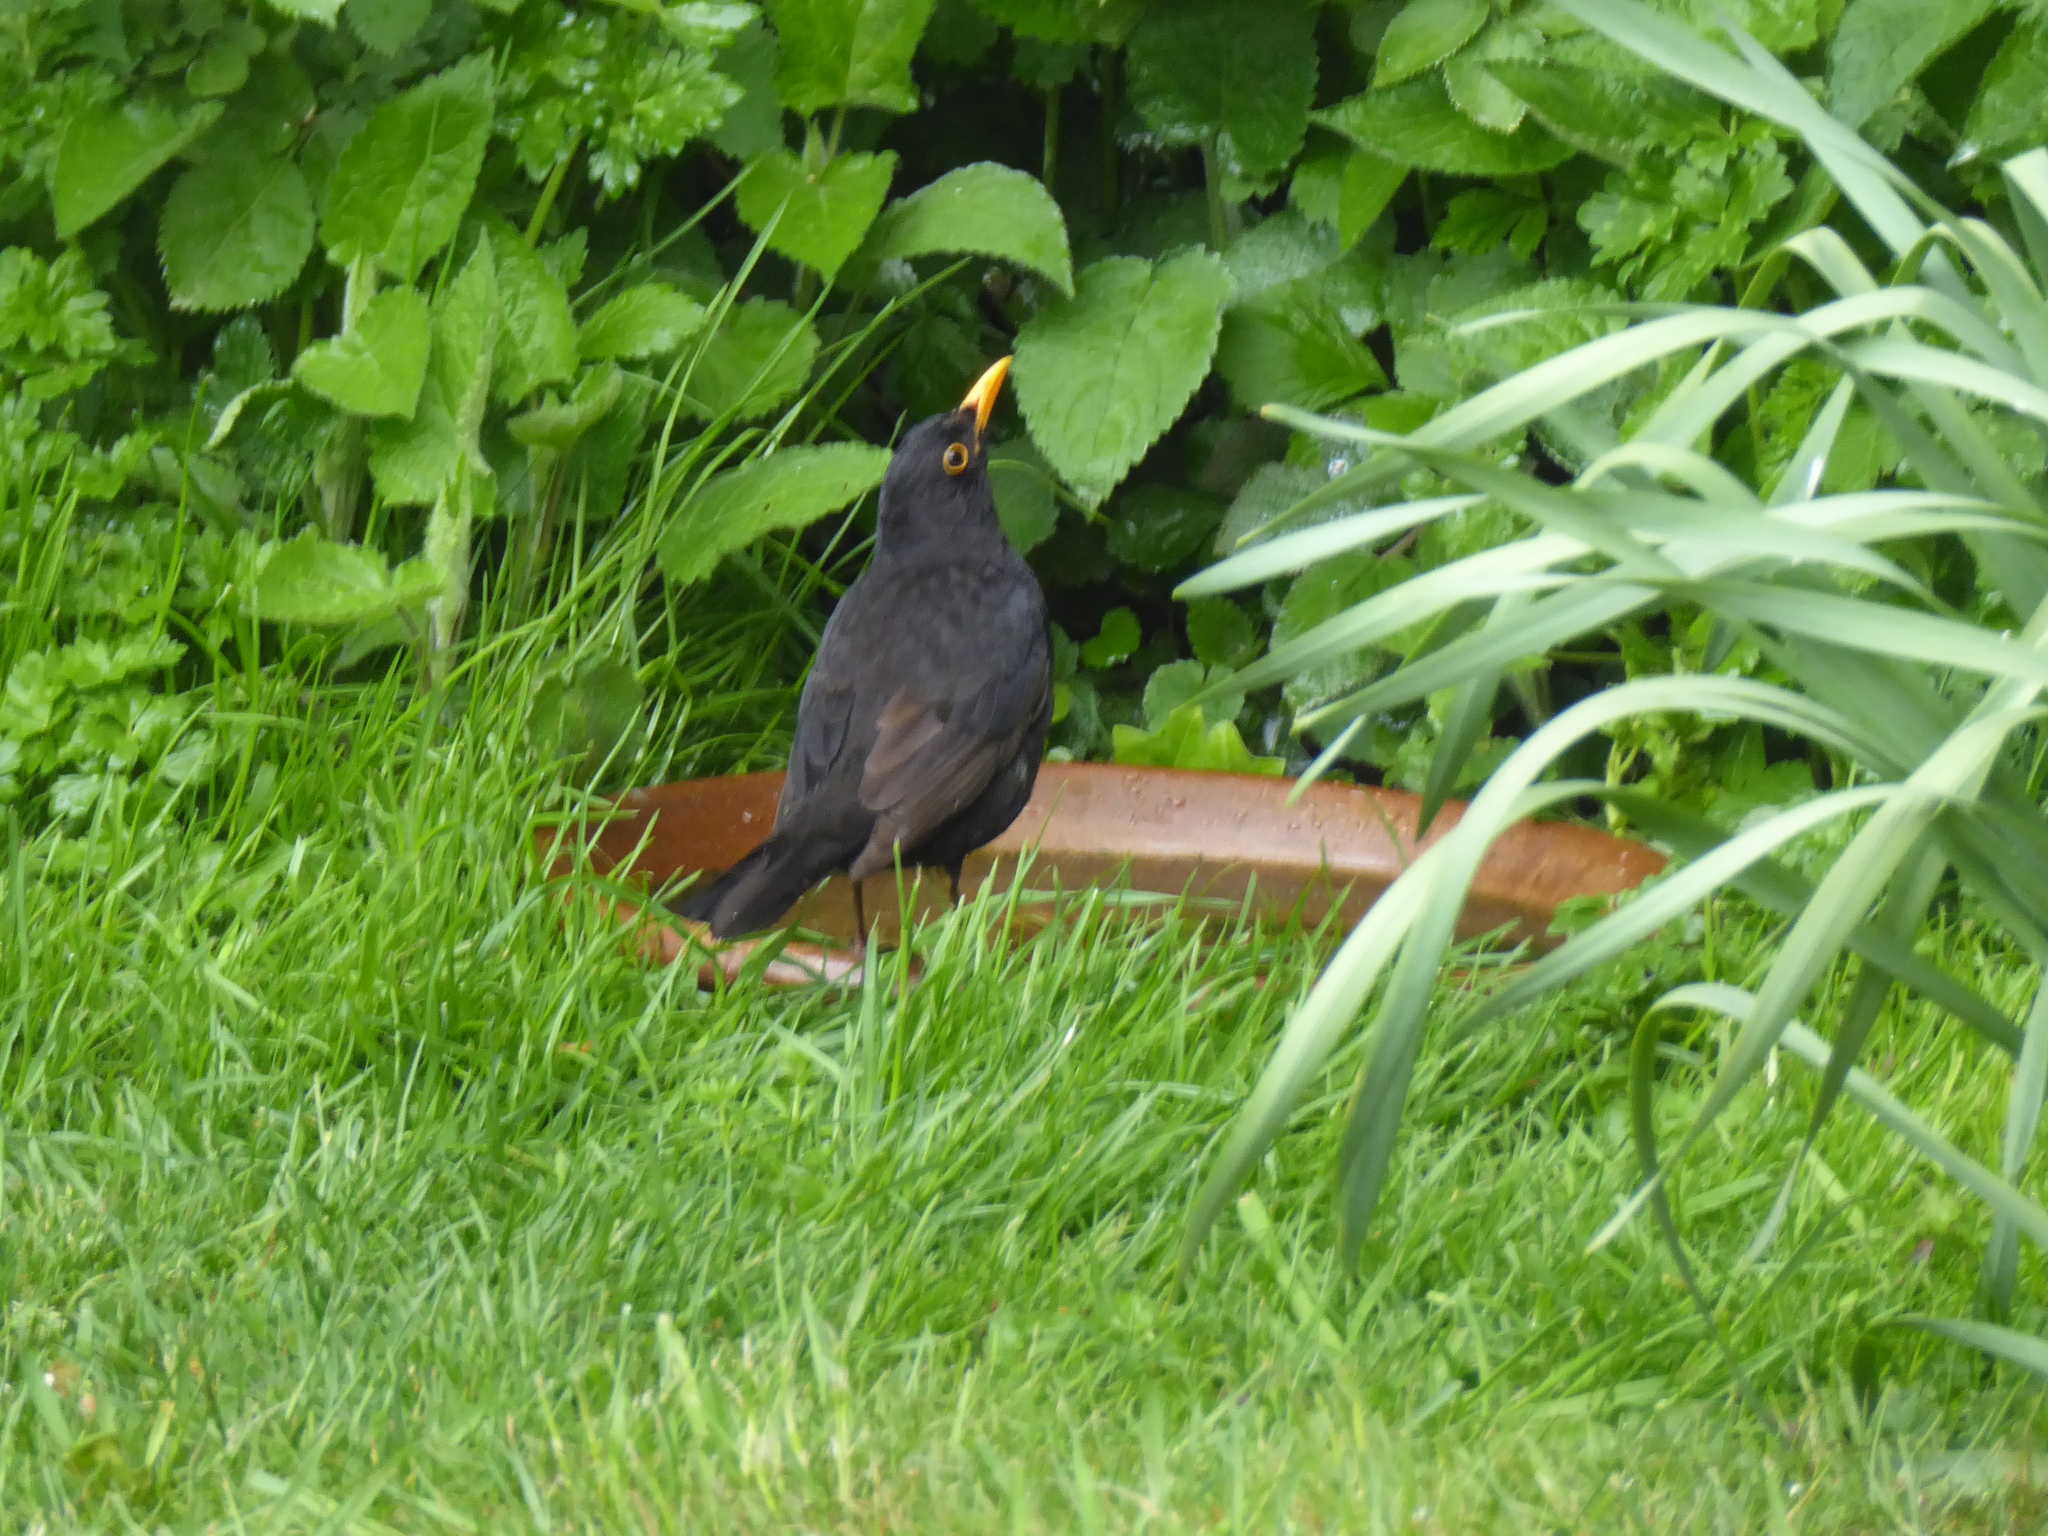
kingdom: Animalia
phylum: Chordata
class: Aves
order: Passeriformes
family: Turdidae
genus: Turdus
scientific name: Turdus merula
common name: Common blackbird
